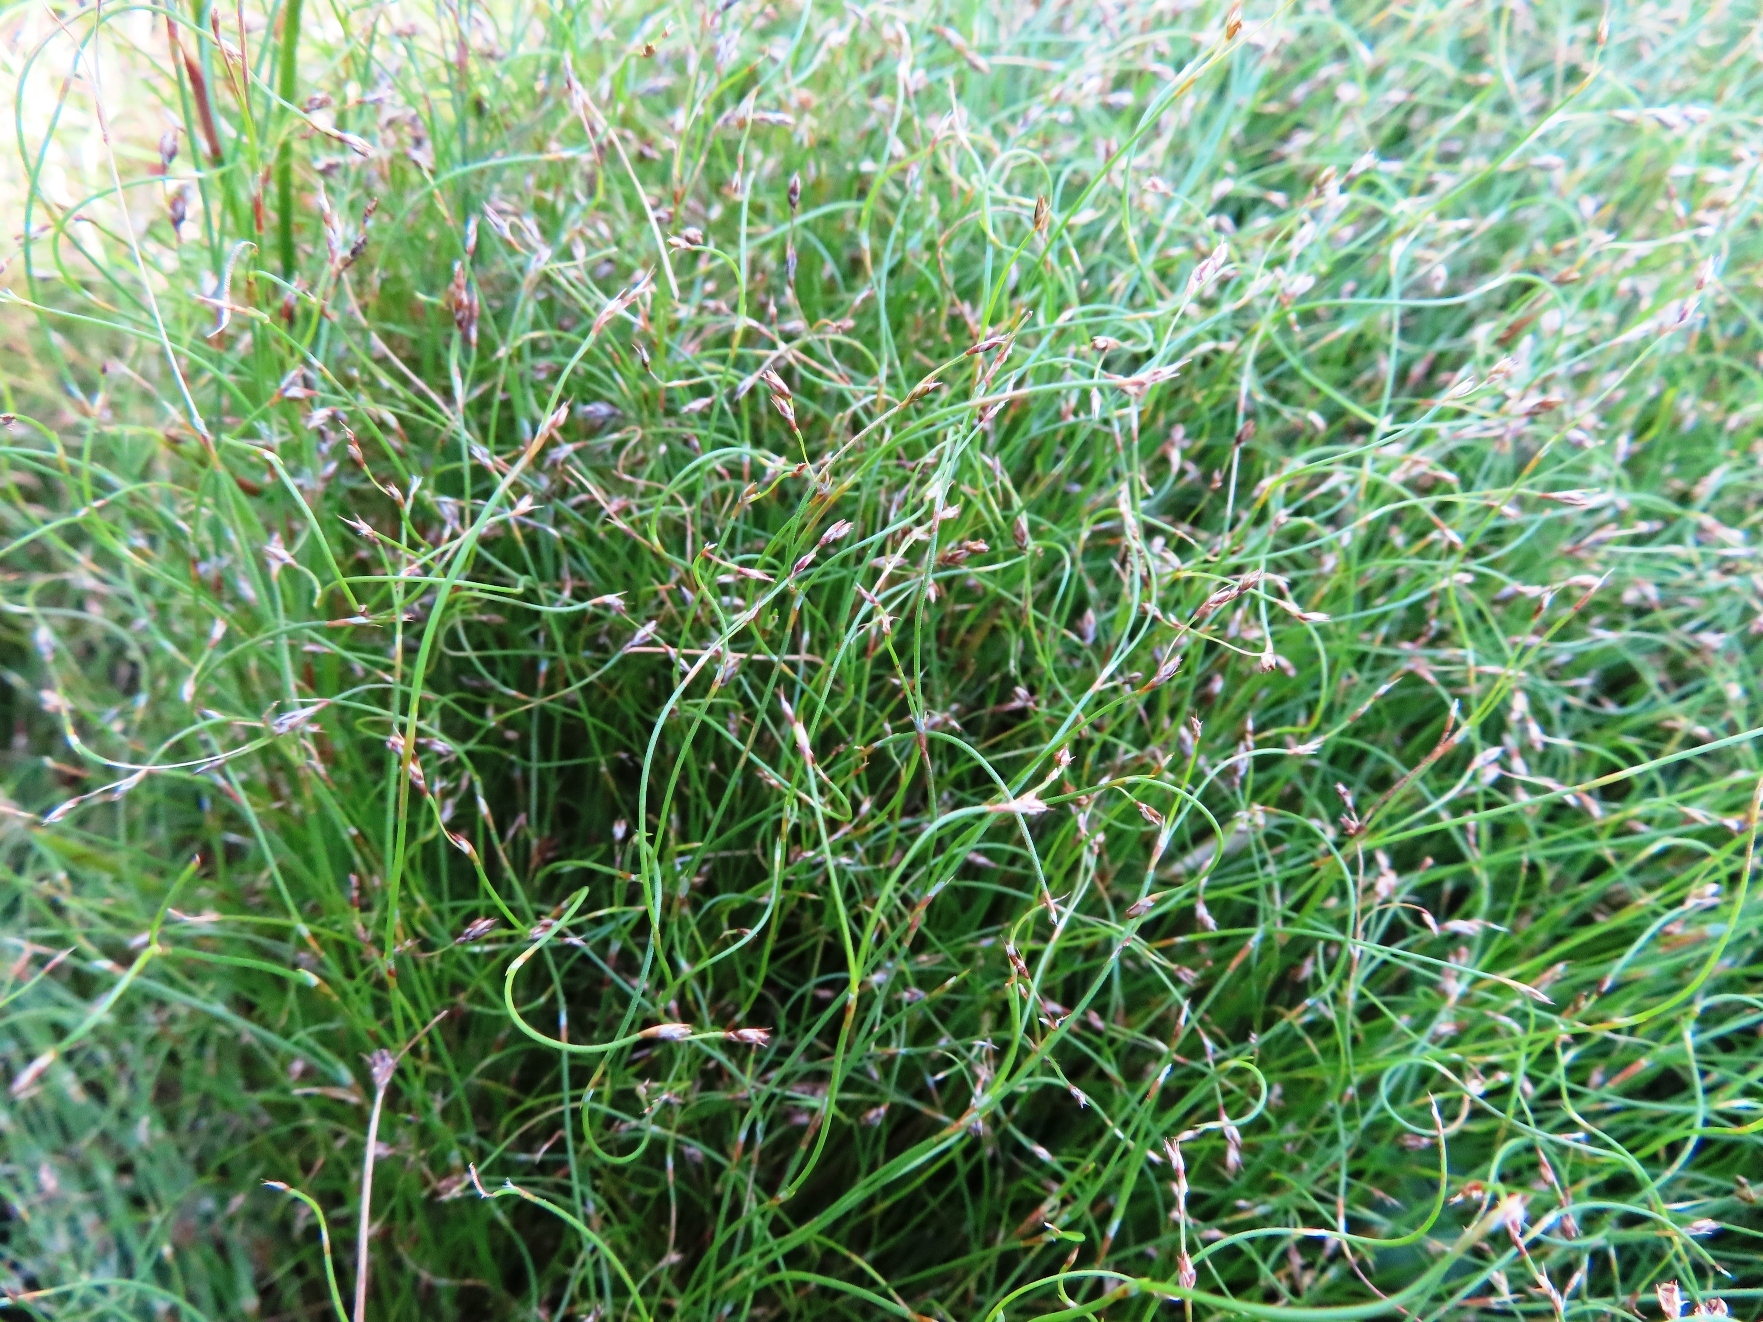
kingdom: Plantae
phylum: Tracheophyta
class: Liliopsida
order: Poales
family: Restionaceae
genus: Anthochortus
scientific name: Anthochortus crinalis
